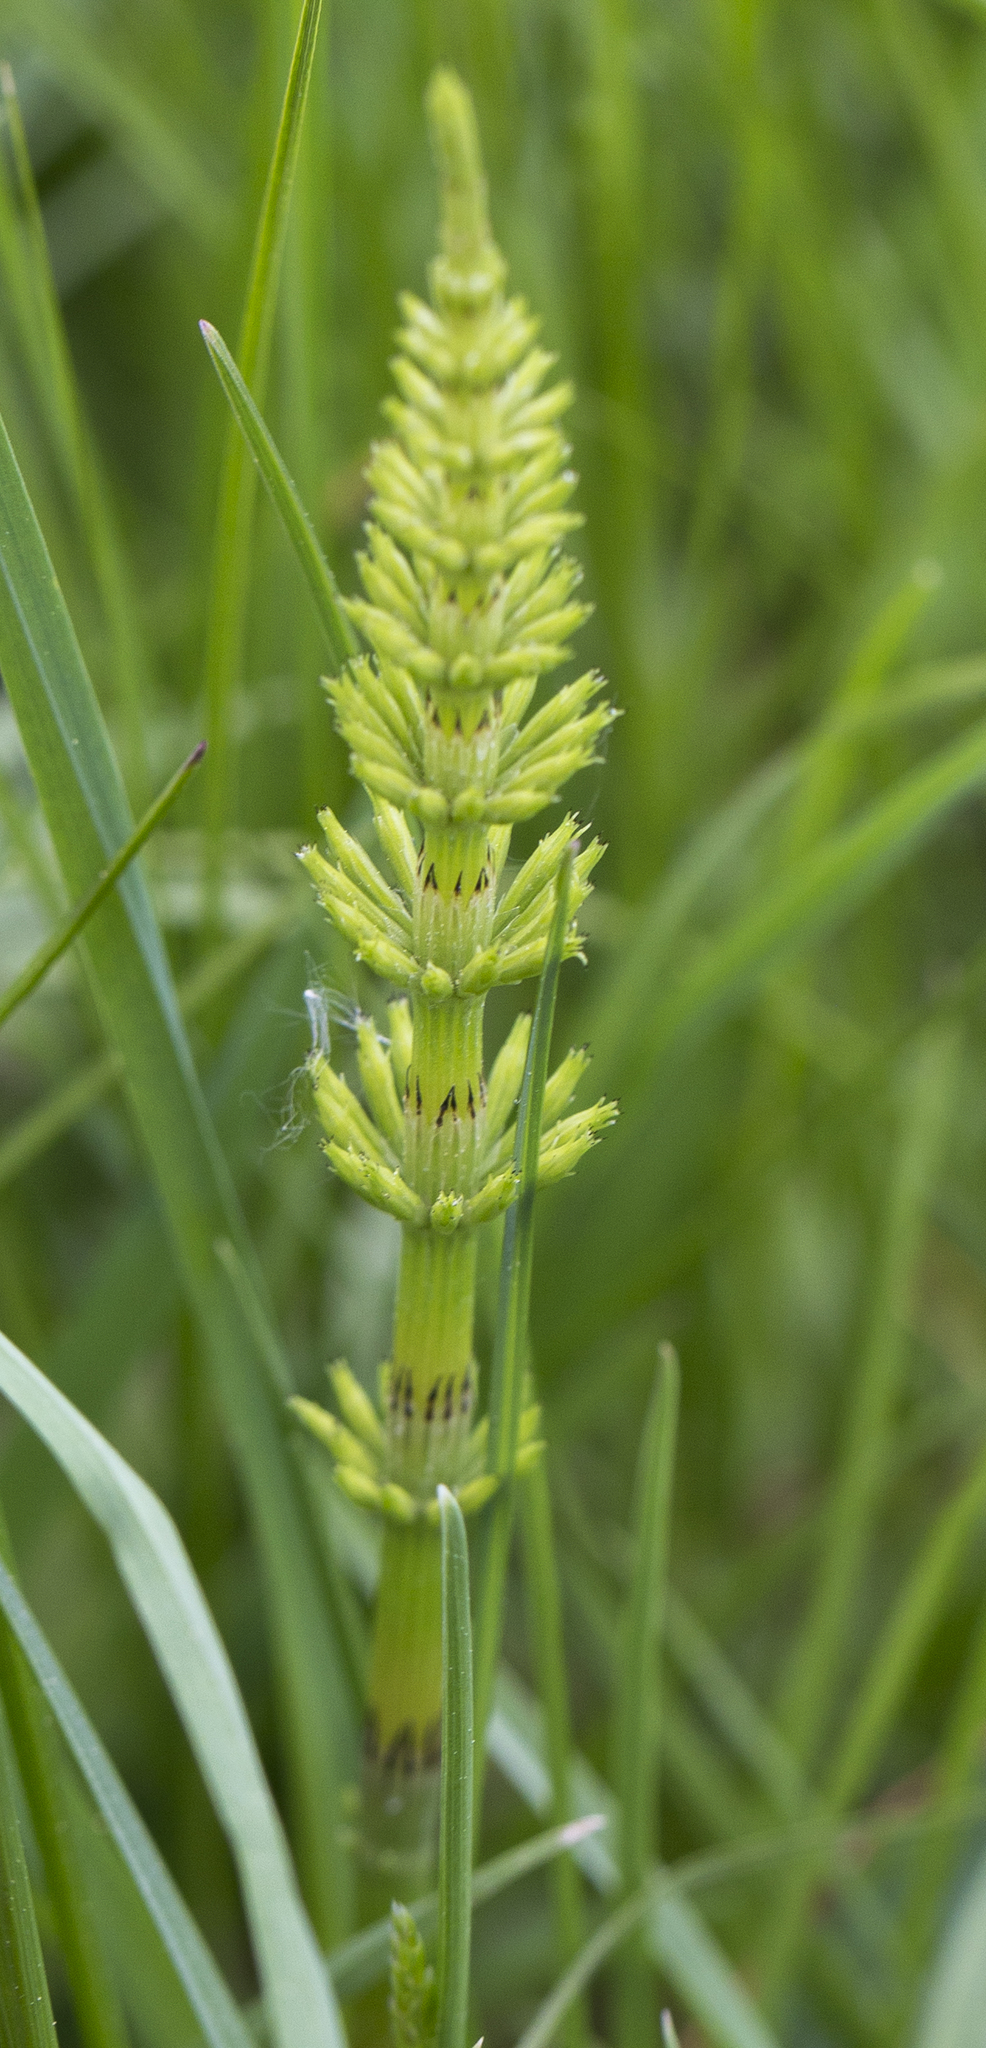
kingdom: Plantae
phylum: Tracheophyta
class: Polypodiopsida
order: Equisetales
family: Equisetaceae
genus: Equisetum
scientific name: Equisetum arvense
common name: Field horsetail
